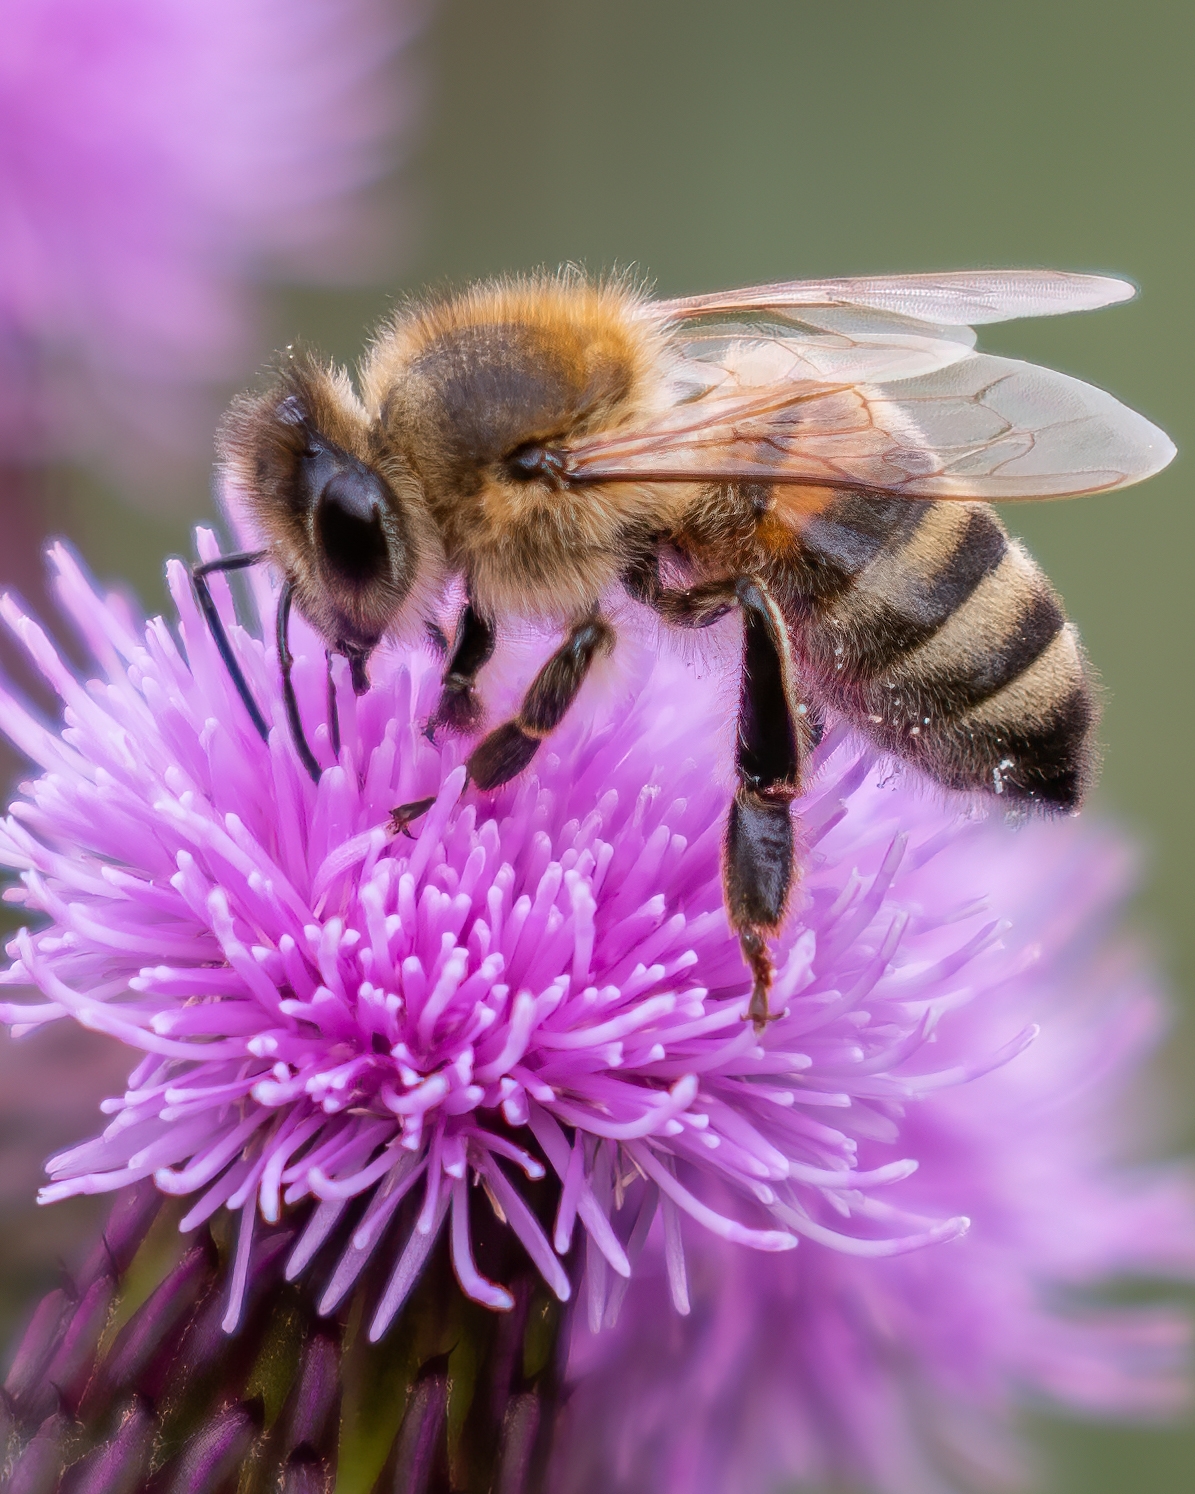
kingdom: Animalia
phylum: Arthropoda
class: Insecta
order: Hymenoptera
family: Apidae
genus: Apis
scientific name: Apis mellifera
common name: Honey bee
